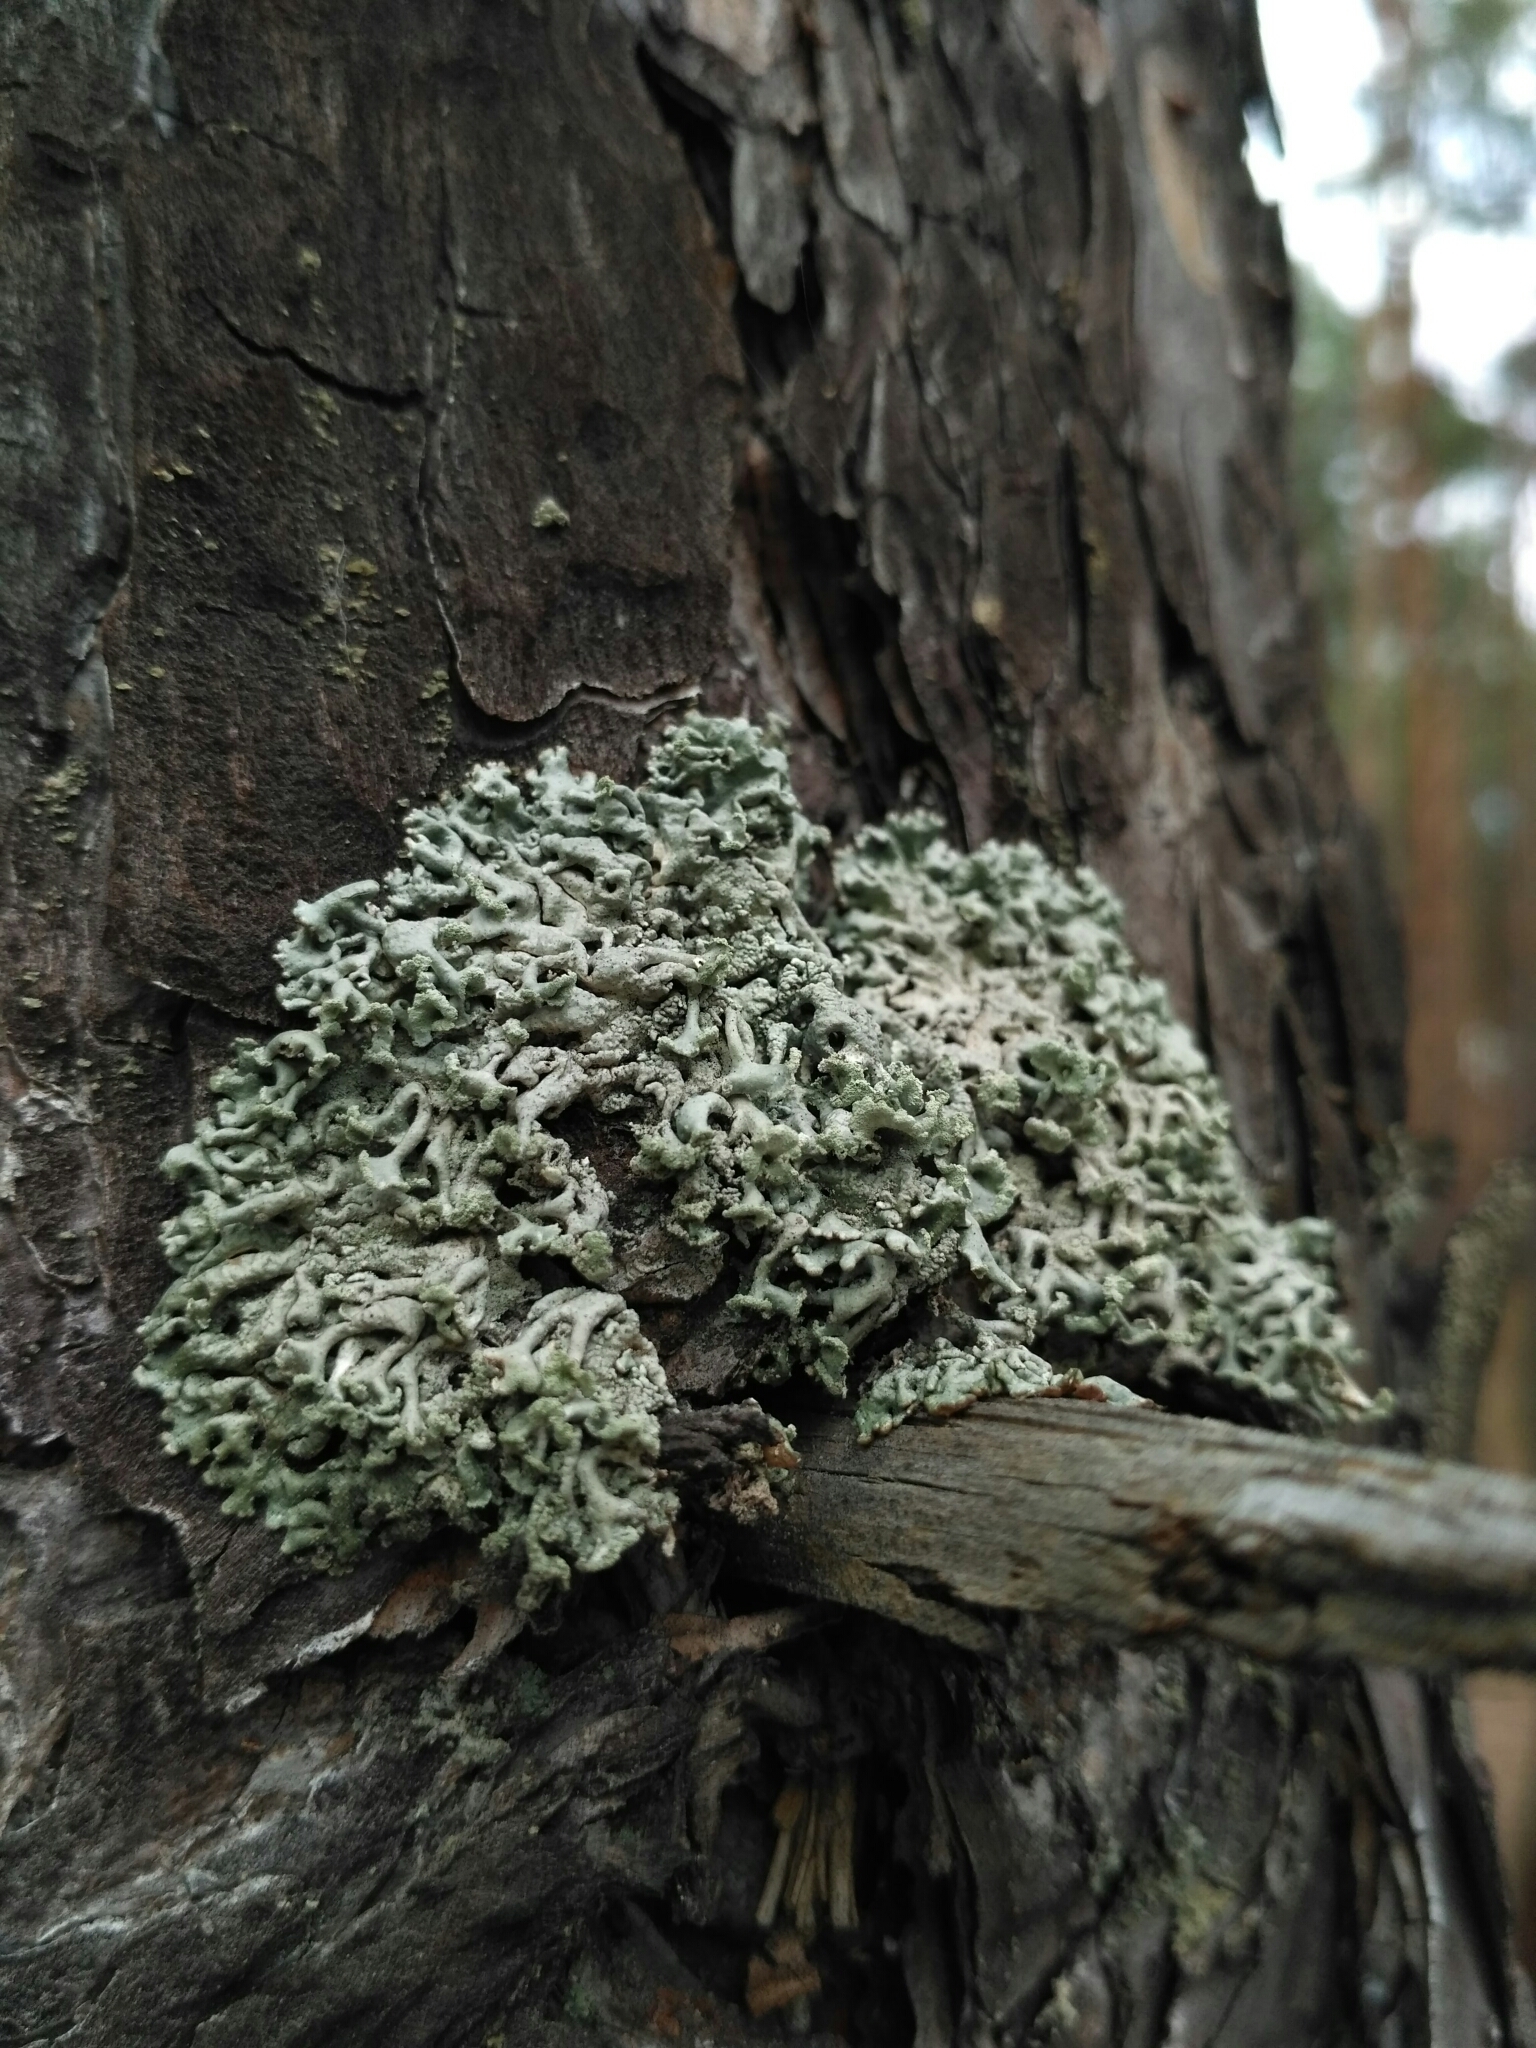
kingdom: Fungi
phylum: Ascomycota
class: Lecanoromycetes
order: Lecanorales
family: Parmeliaceae
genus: Hypogymnia
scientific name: Hypogymnia physodes
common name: Dark crottle
